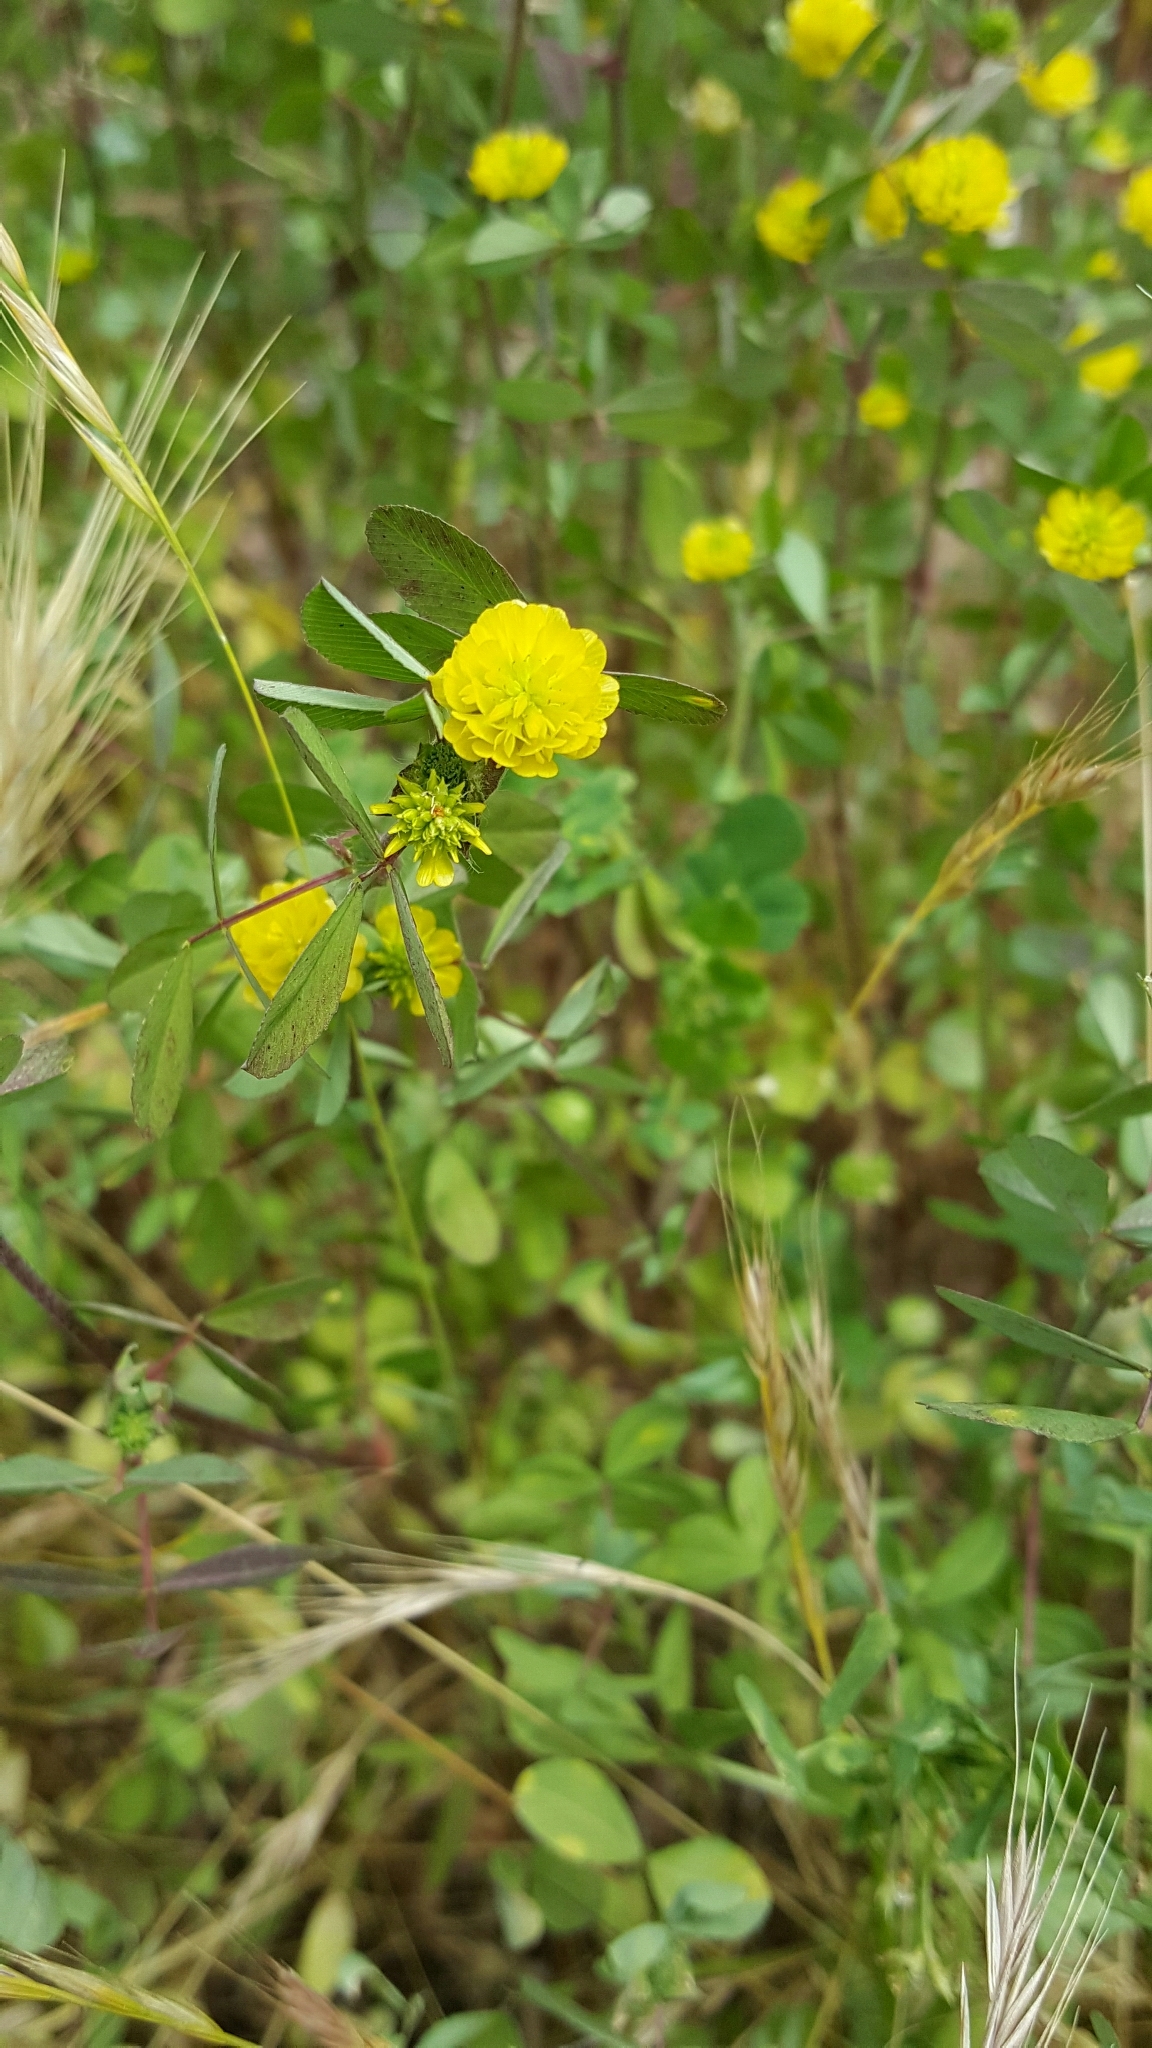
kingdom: Plantae
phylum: Tracheophyta
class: Magnoliopsida
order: Fabales
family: Fabaceae
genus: Trifolium
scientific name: Trifolium campestre
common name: Field clover
